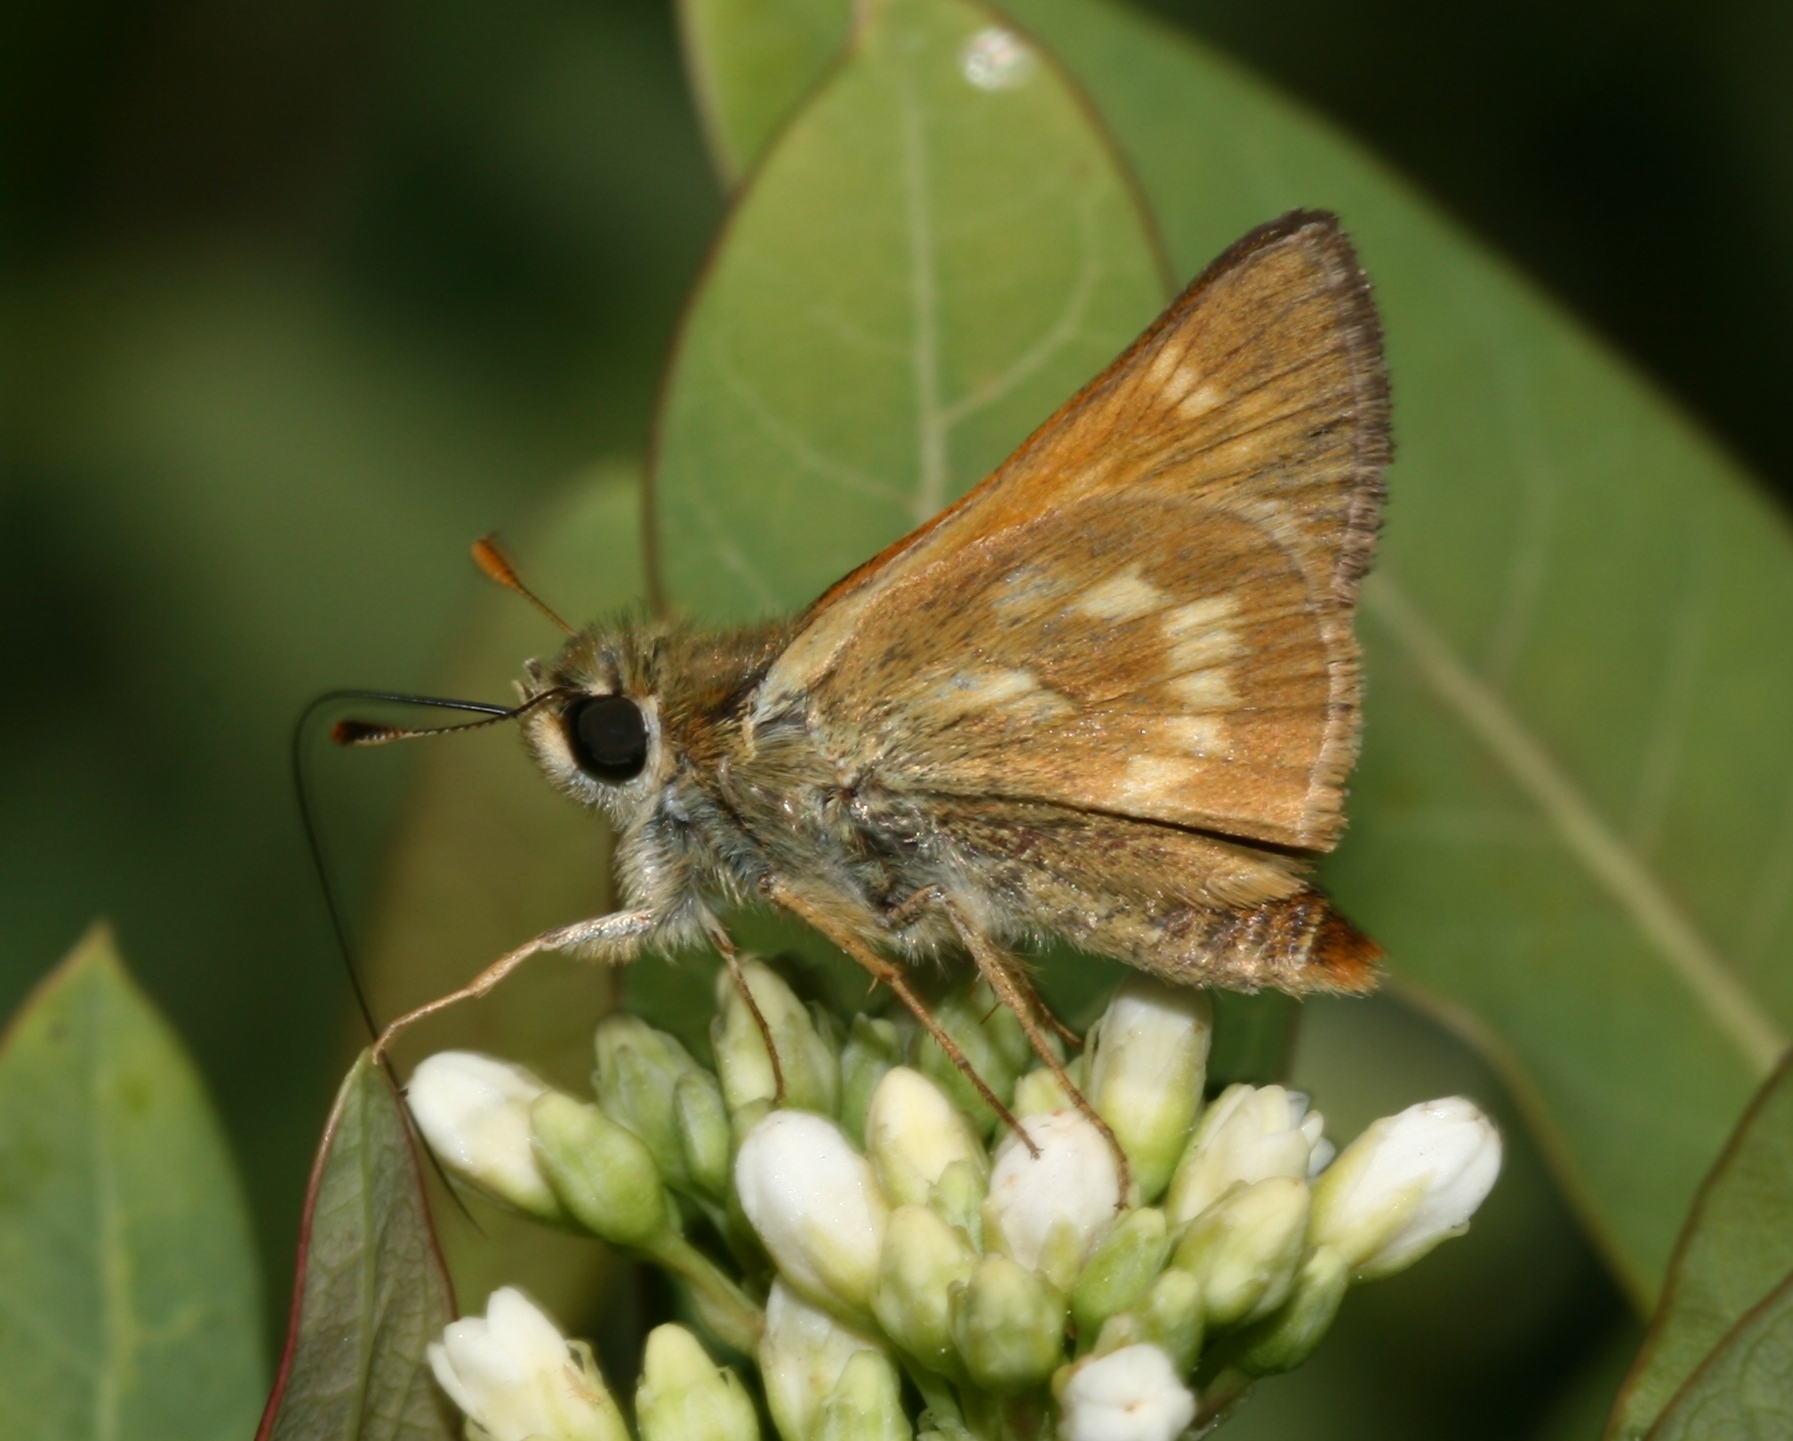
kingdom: Animalia
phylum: Arthropoda
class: Insecta
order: Lepidoptera
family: Hesperiidae
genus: Polites
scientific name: Polites mystic
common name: Long dash
